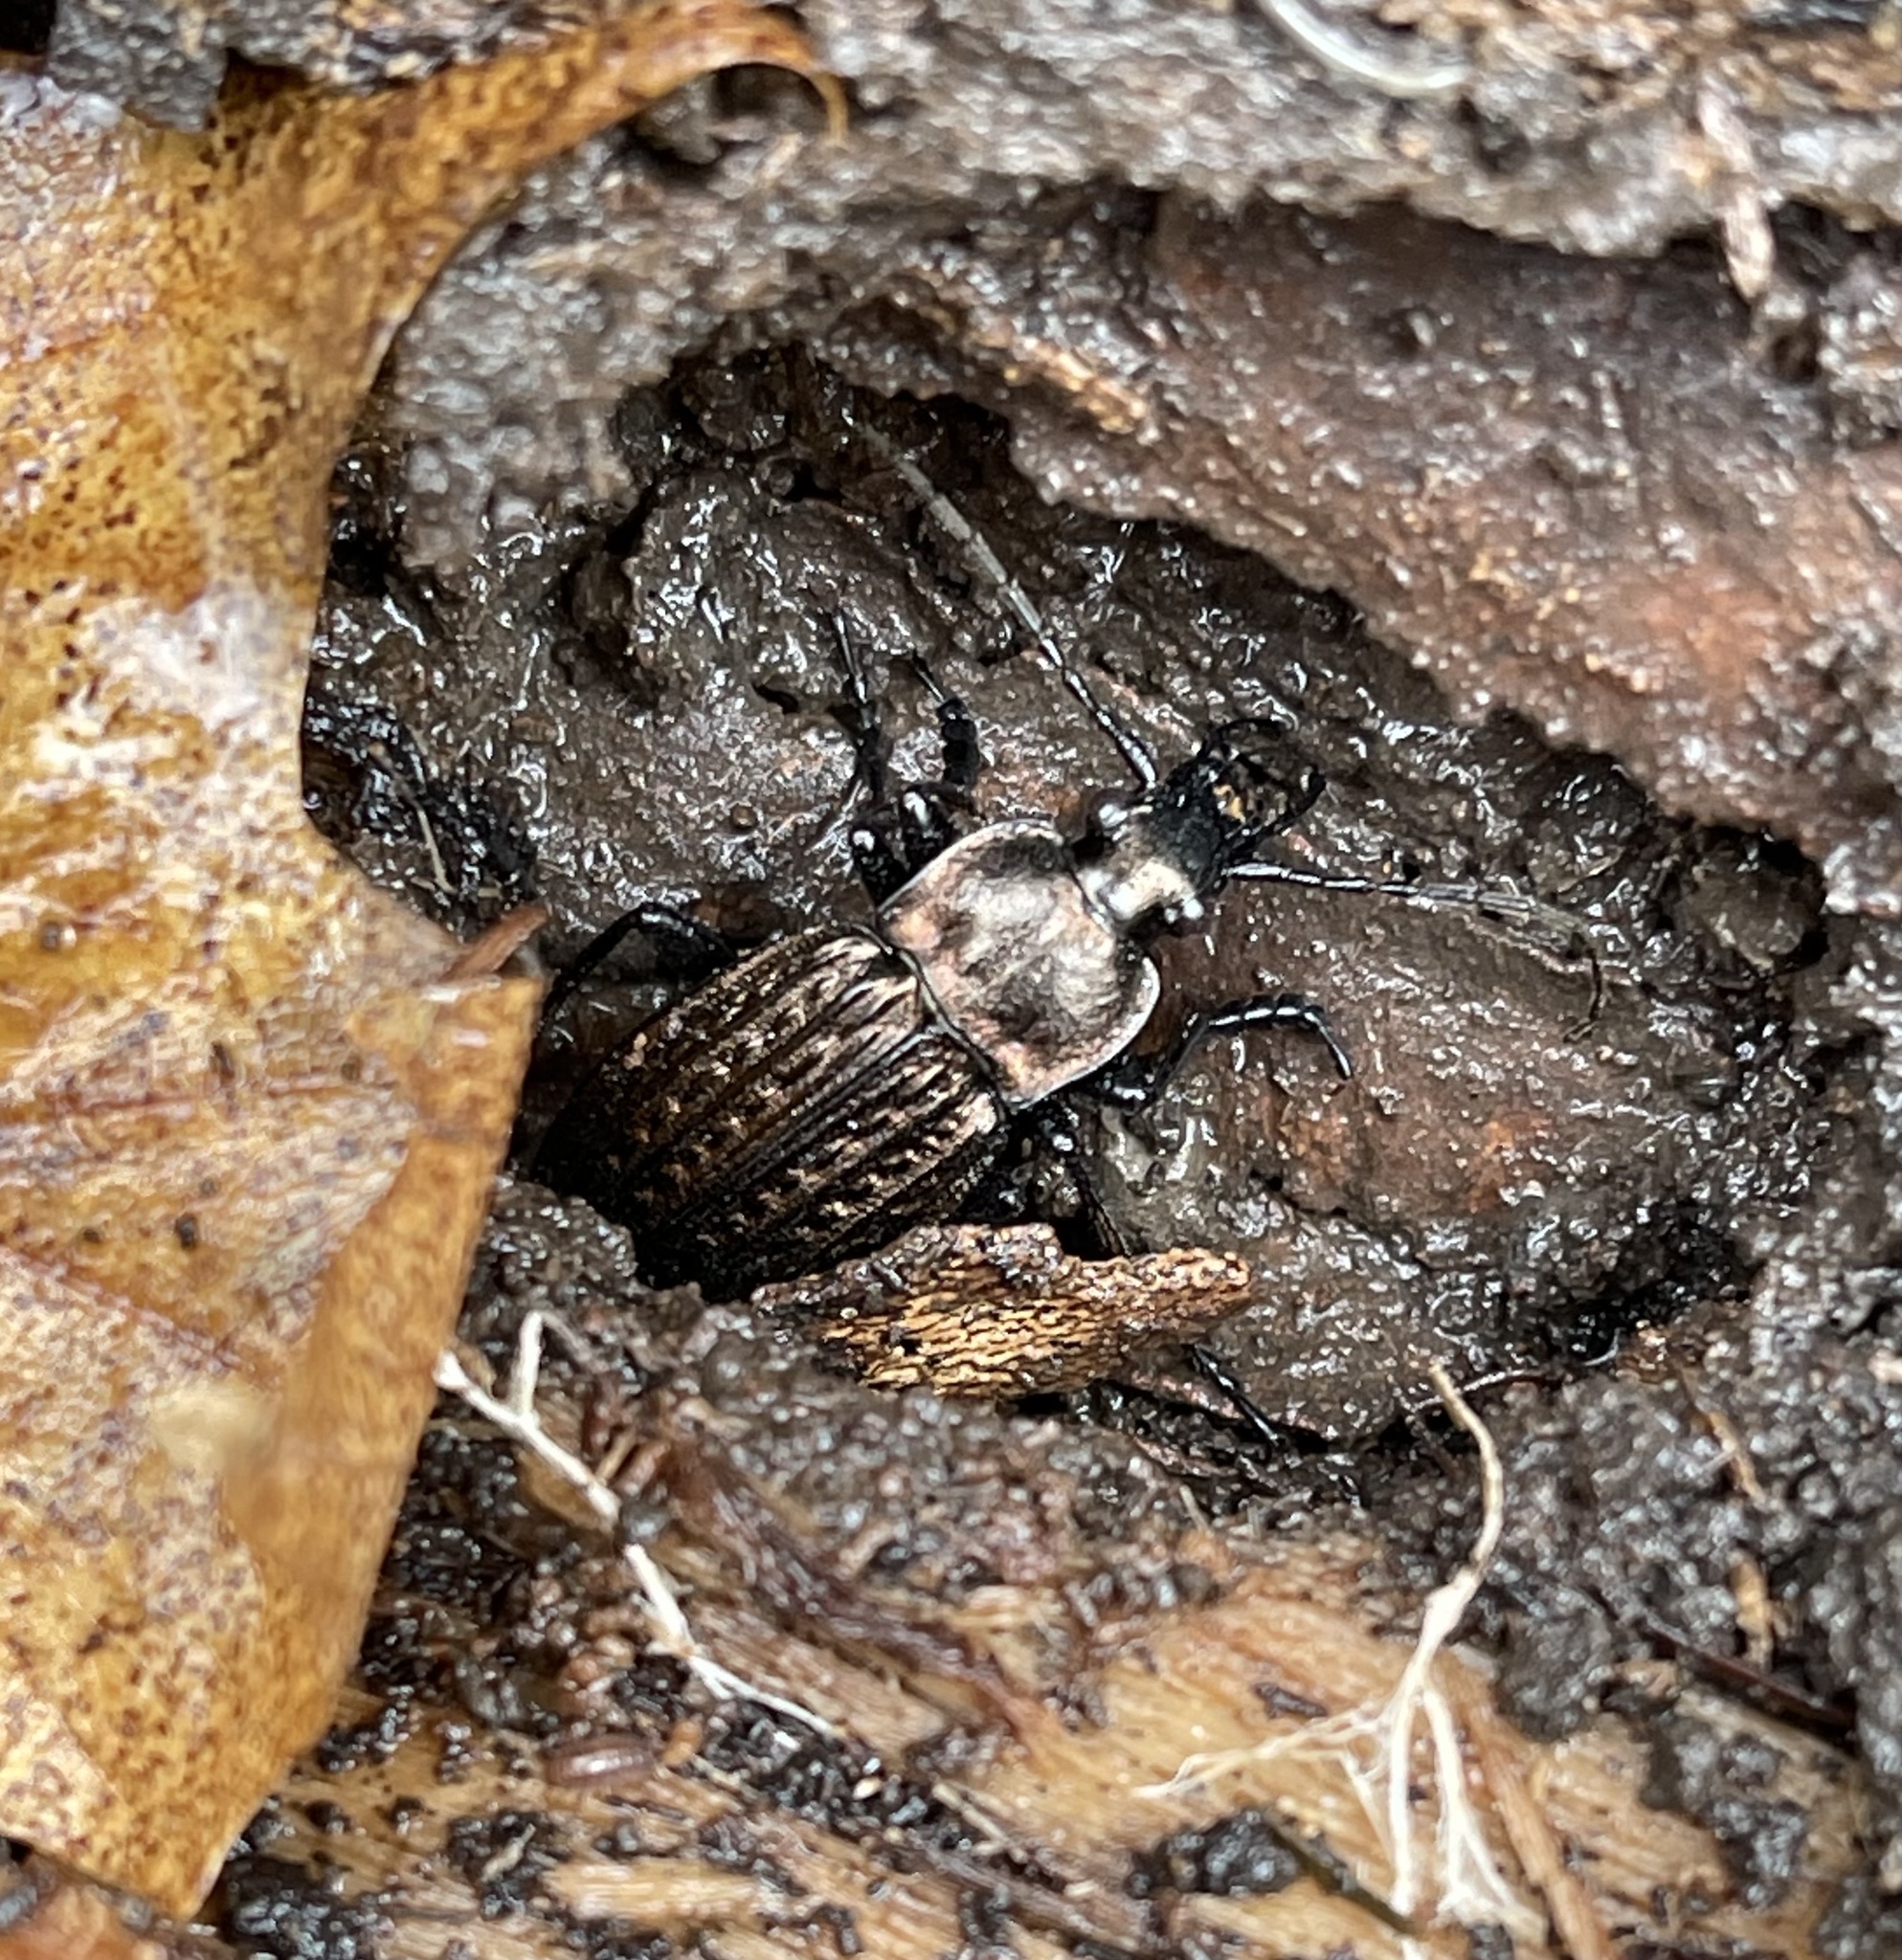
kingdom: Animalia
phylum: Arthropoda
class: Insecta
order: Coleoptera
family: Carabidae
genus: Carabus
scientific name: Carabus granulatus
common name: Granulate ground beetle
